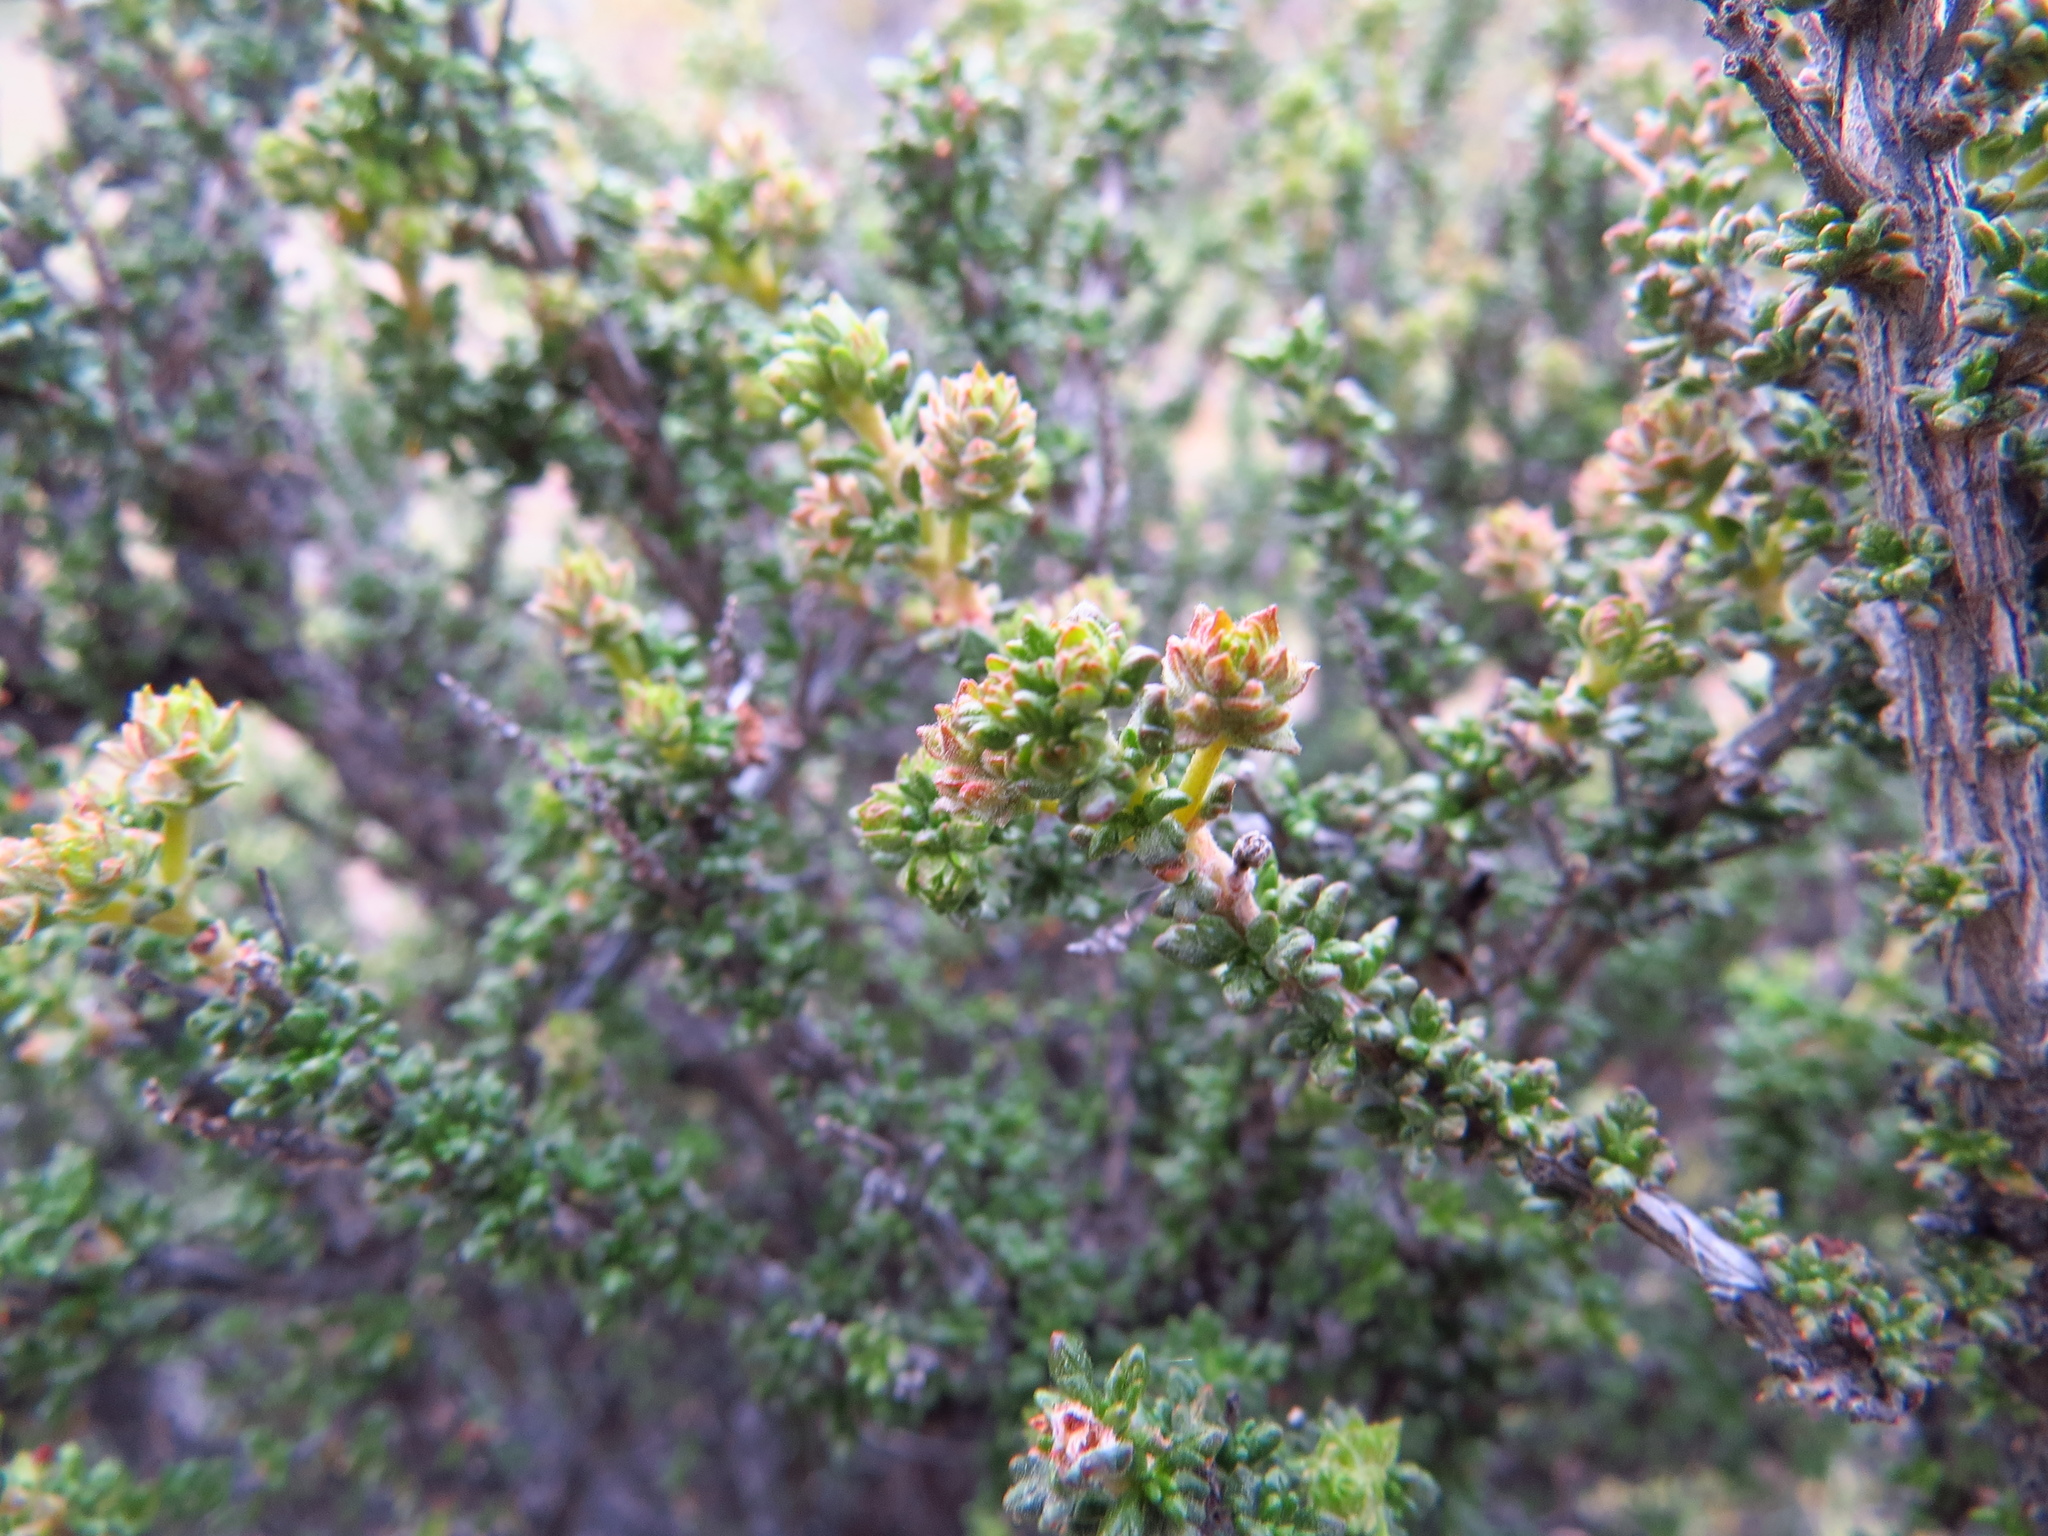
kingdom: Plantae
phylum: Tracheophyta
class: Magnoliopsida
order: Lamiales
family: Verbenaceae
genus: Acantholippia
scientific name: Acantholippia seriphioides
